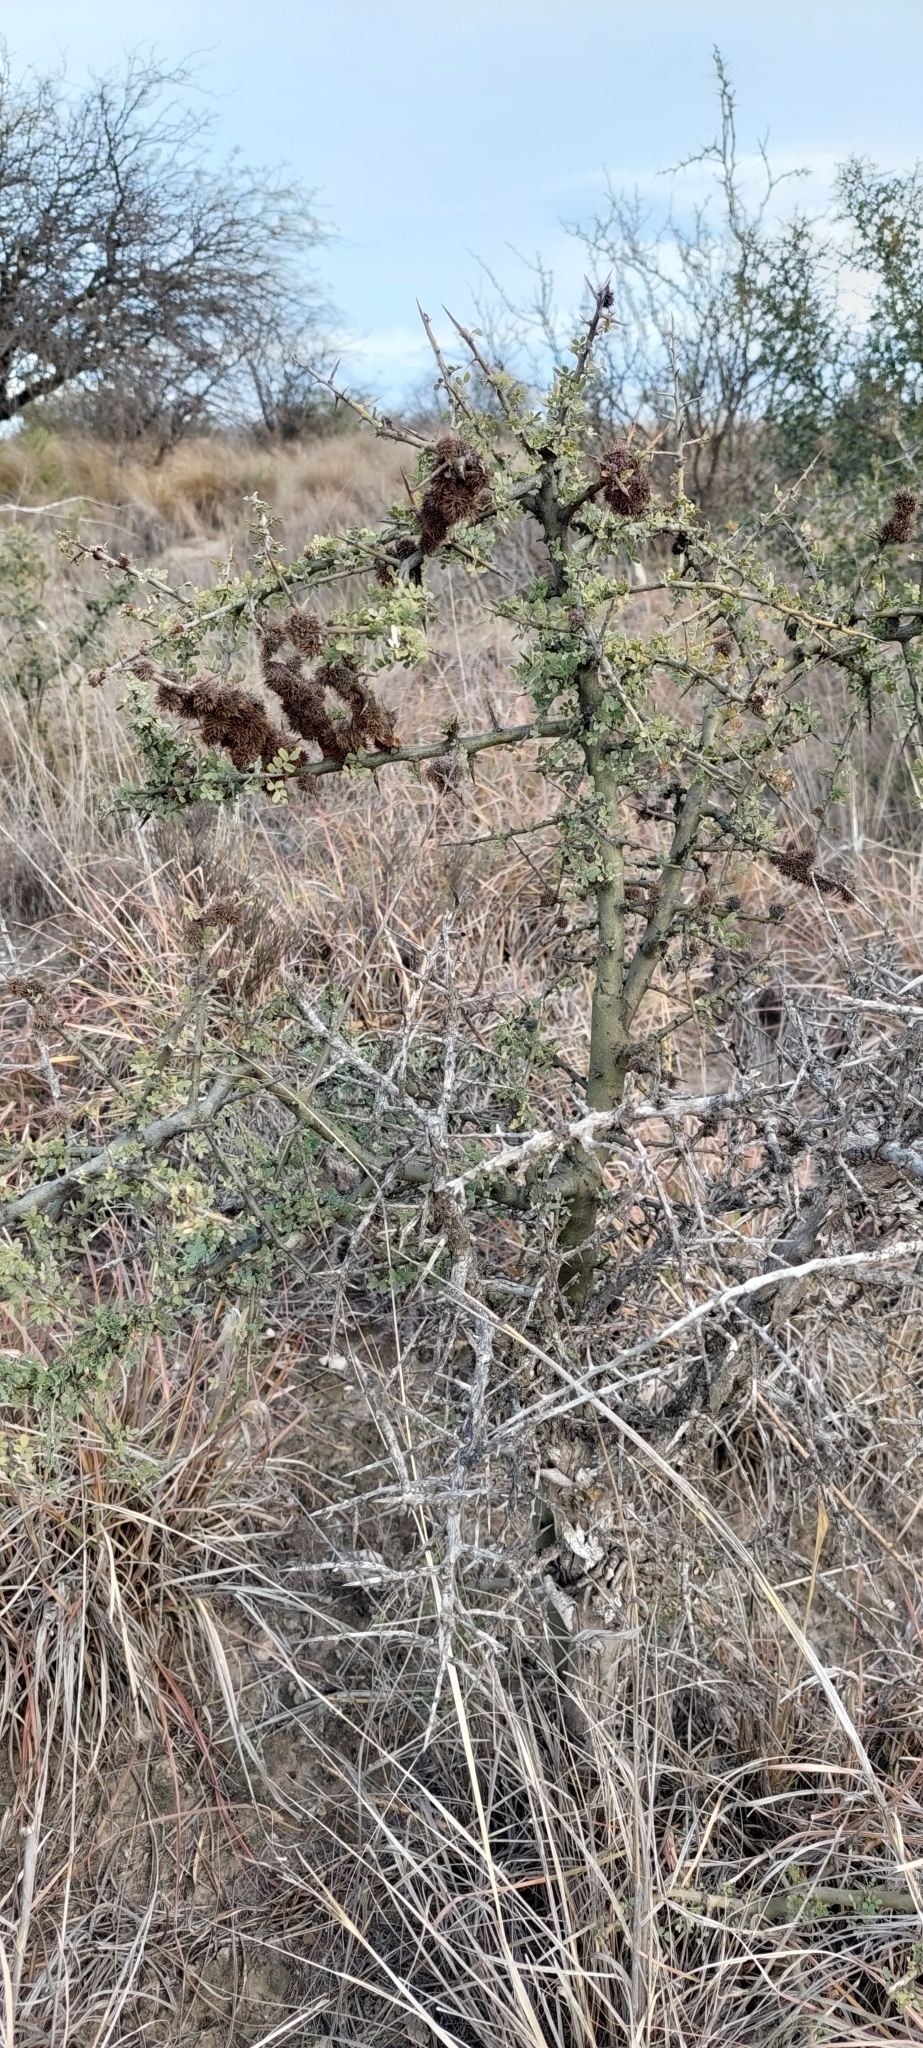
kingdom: Plantae
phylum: Tracheophyta
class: Magnoliopsida
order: Fabales
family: Fabaceae
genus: Geoffroea
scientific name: Geoffroea decorticans
